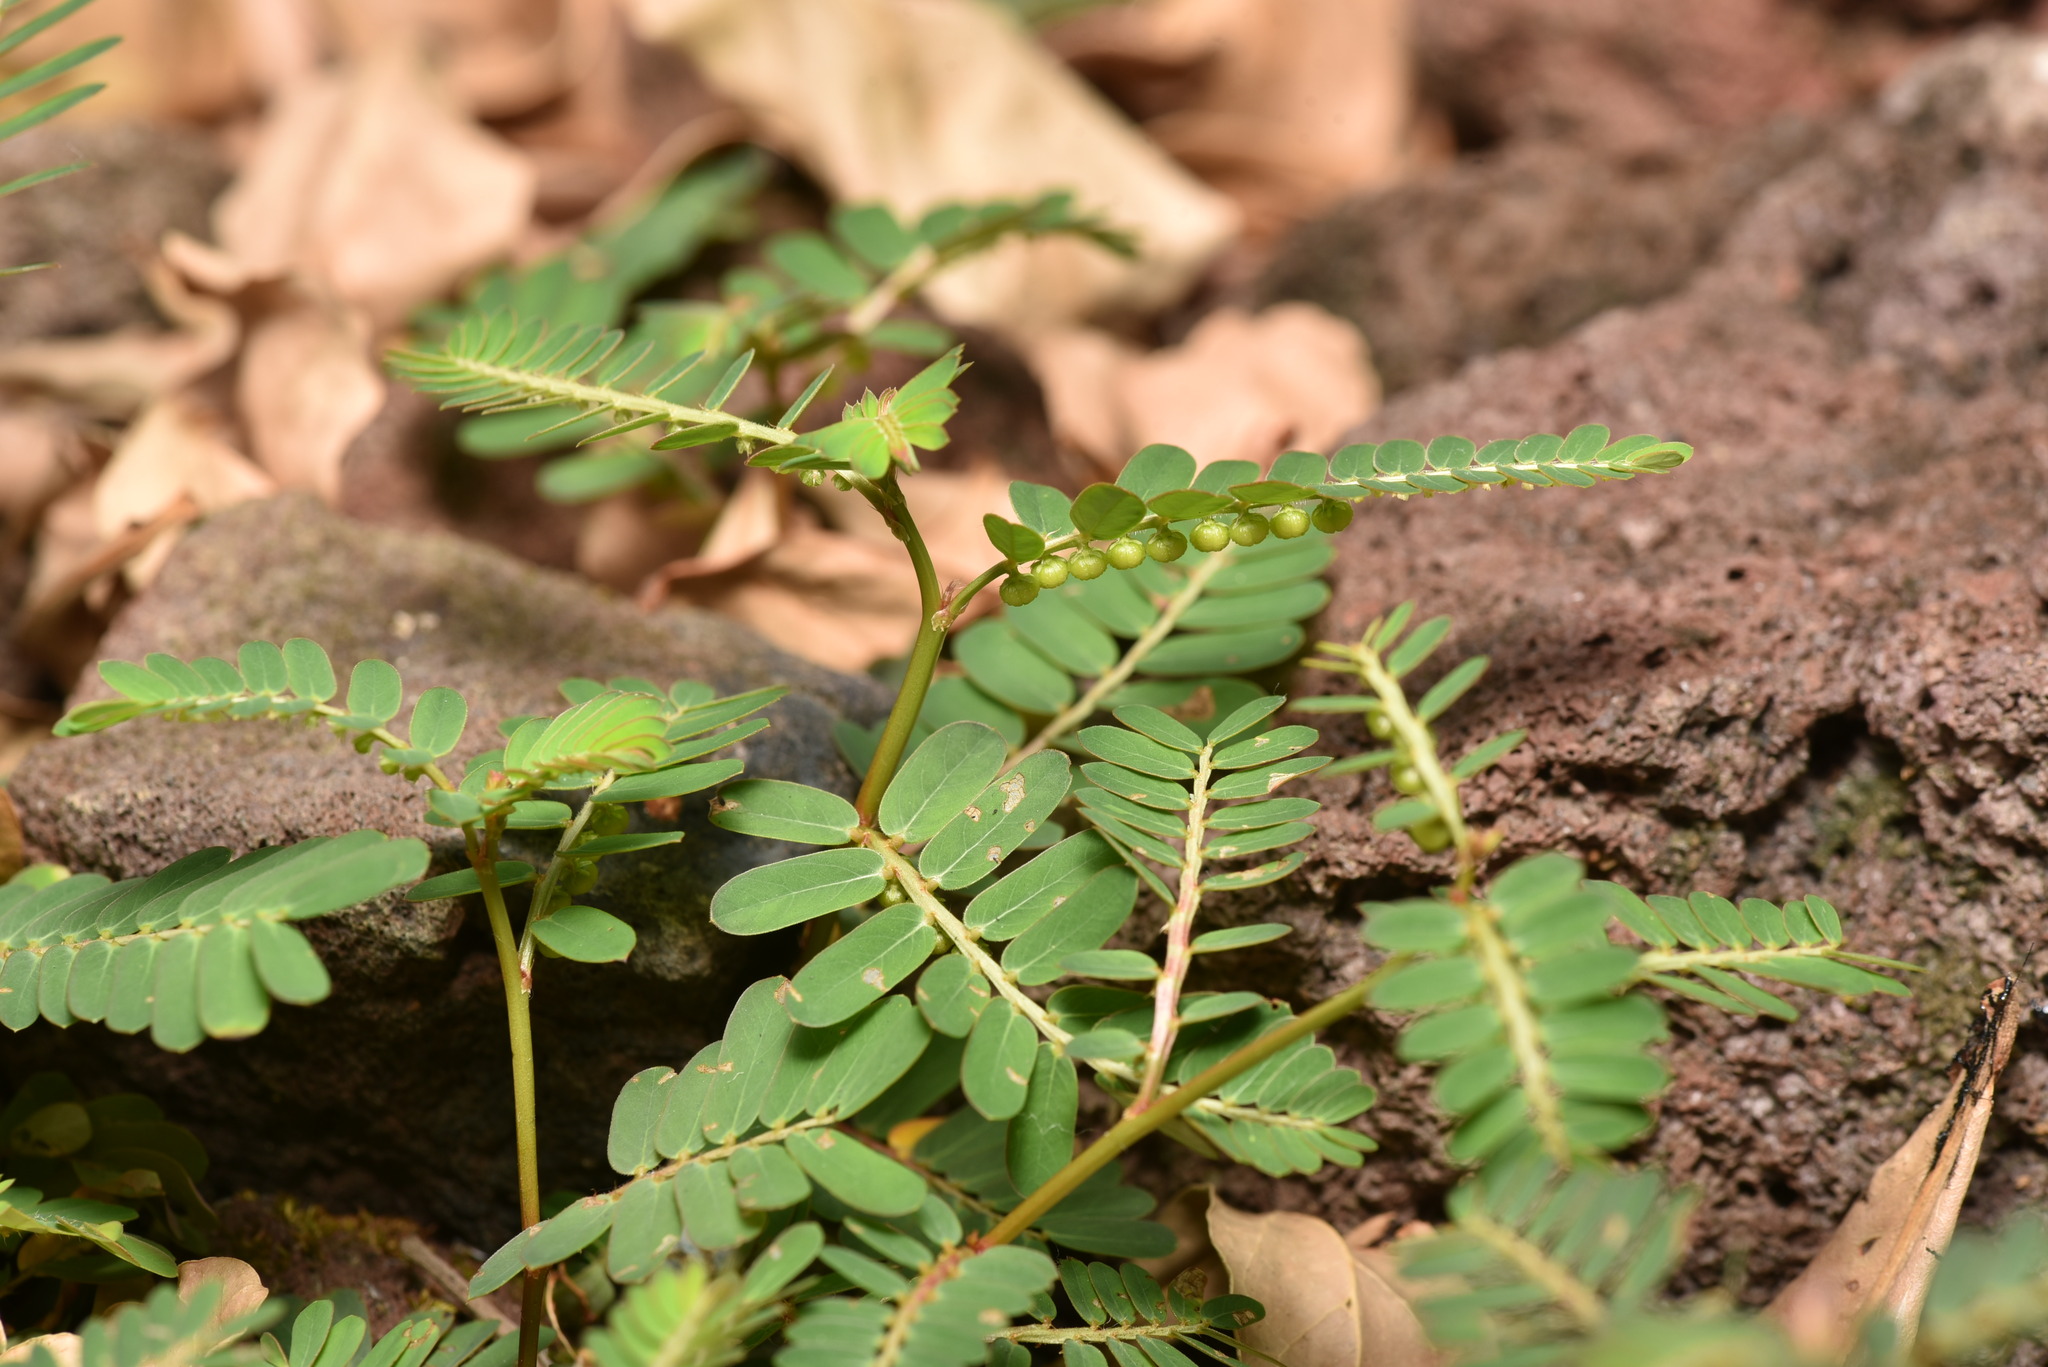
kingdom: Plantae
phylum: Tracheophyta
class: Magnoliopsida
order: Malpighiales
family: Phyllanthaceae
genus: Phyllanthus
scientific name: Phyllanthus urinaria
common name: Chamber bitter
